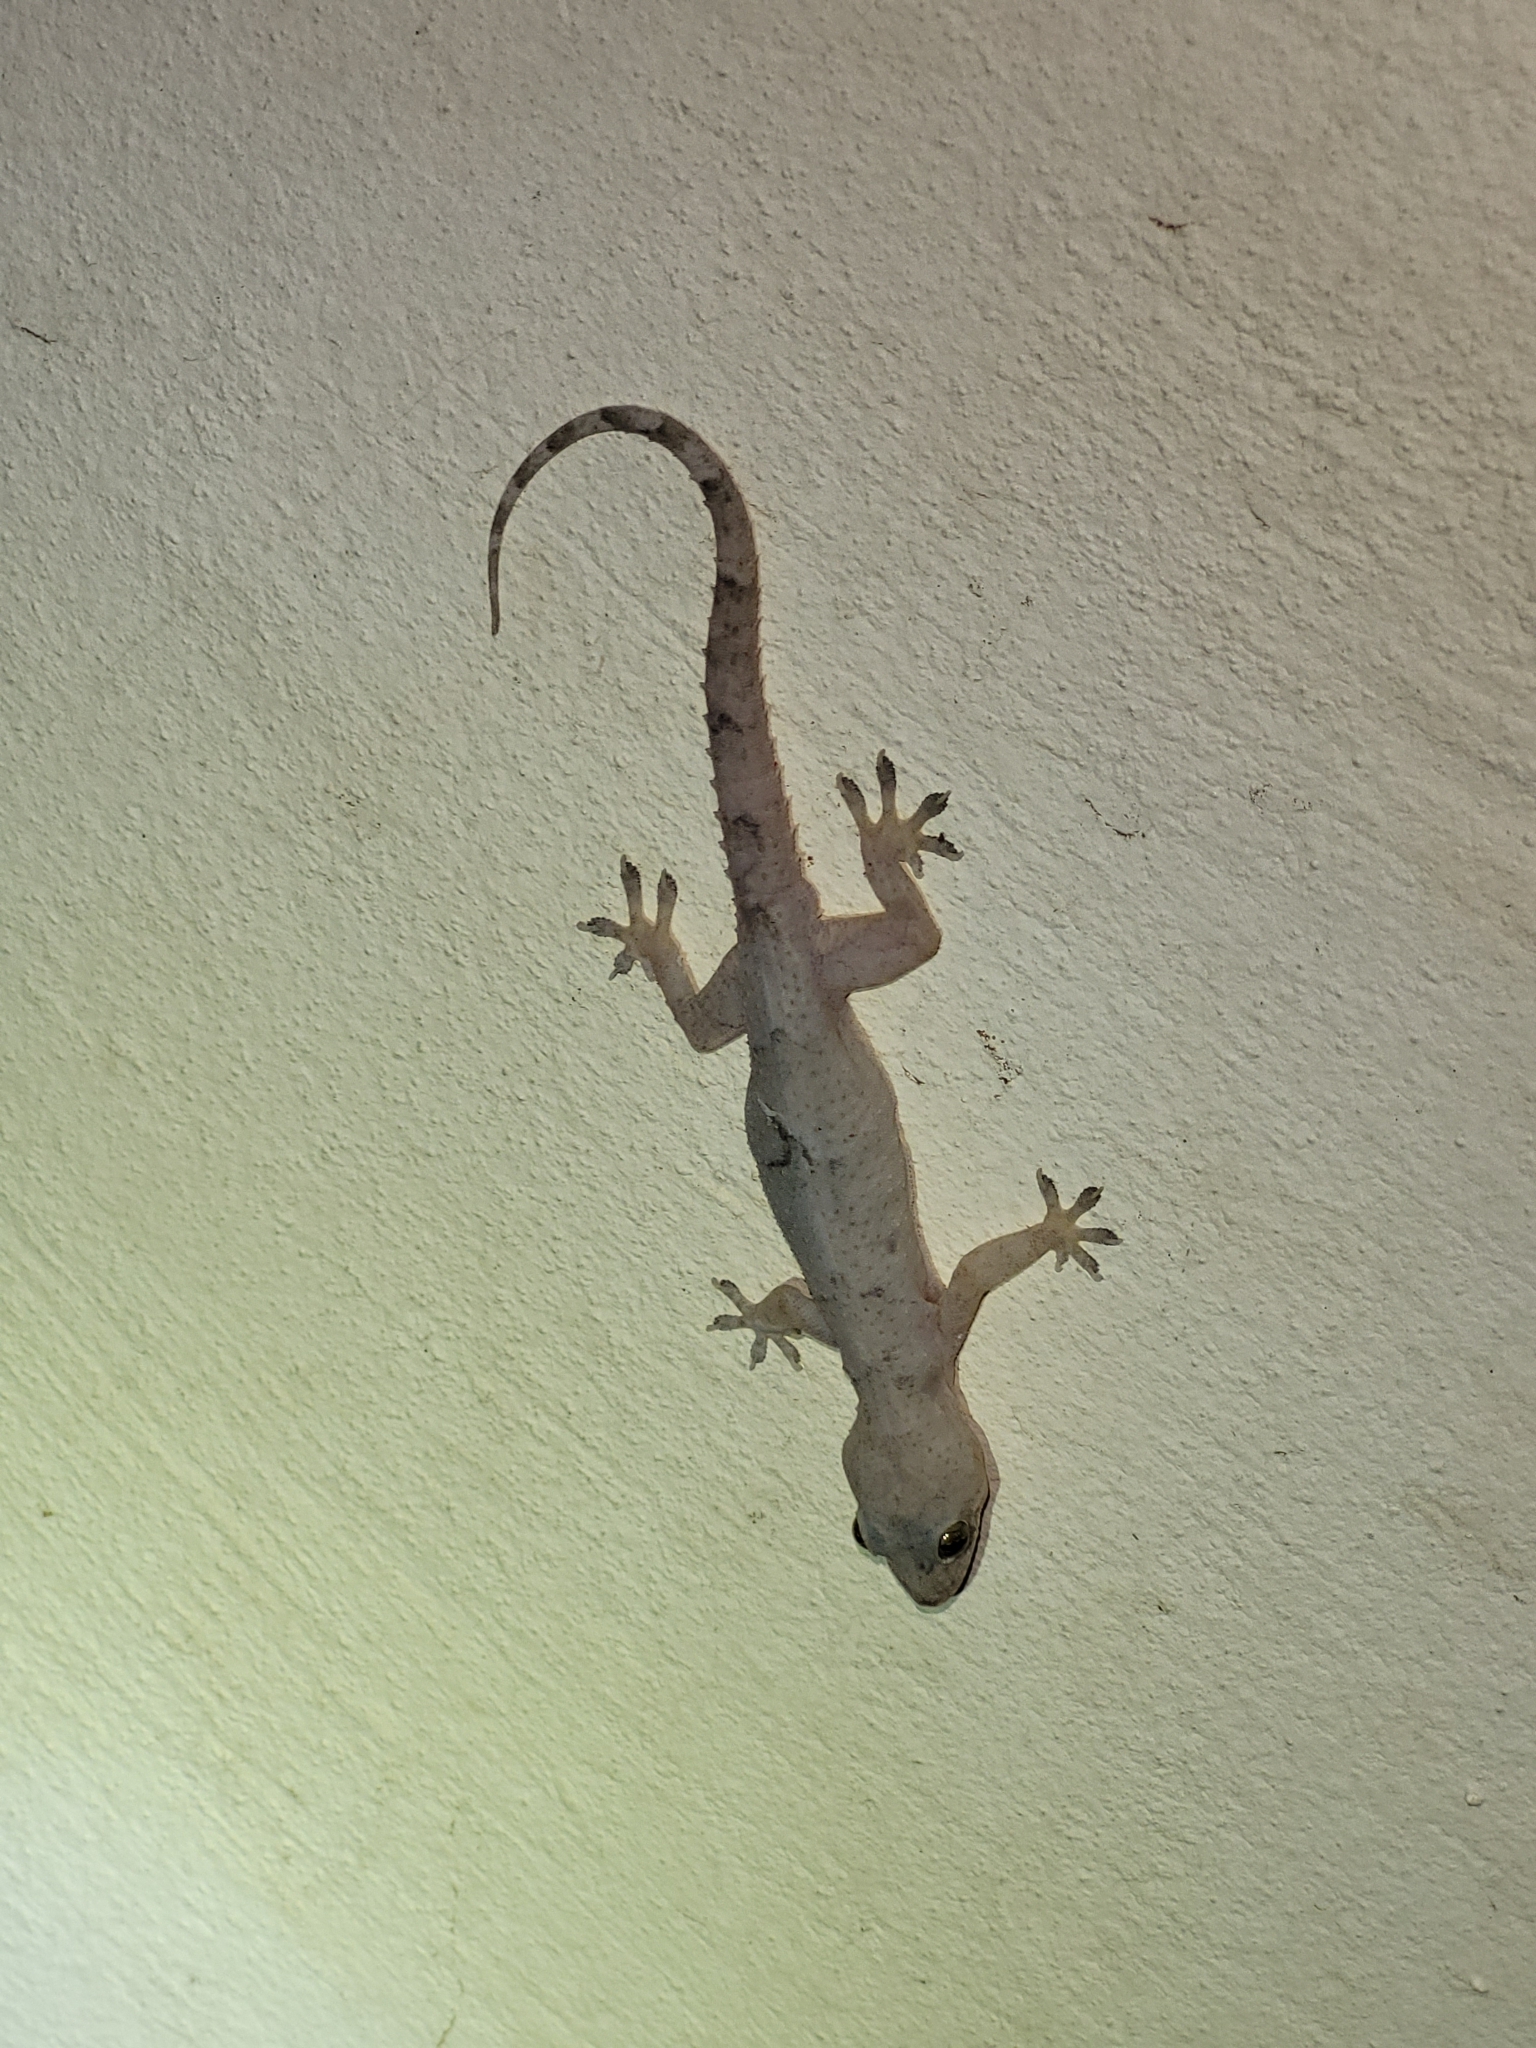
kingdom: Animalia
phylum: Chordata
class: Squamata
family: Gekkonidae
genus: Hemidactylus
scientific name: Hemidactylus mabouia
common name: House gecko
